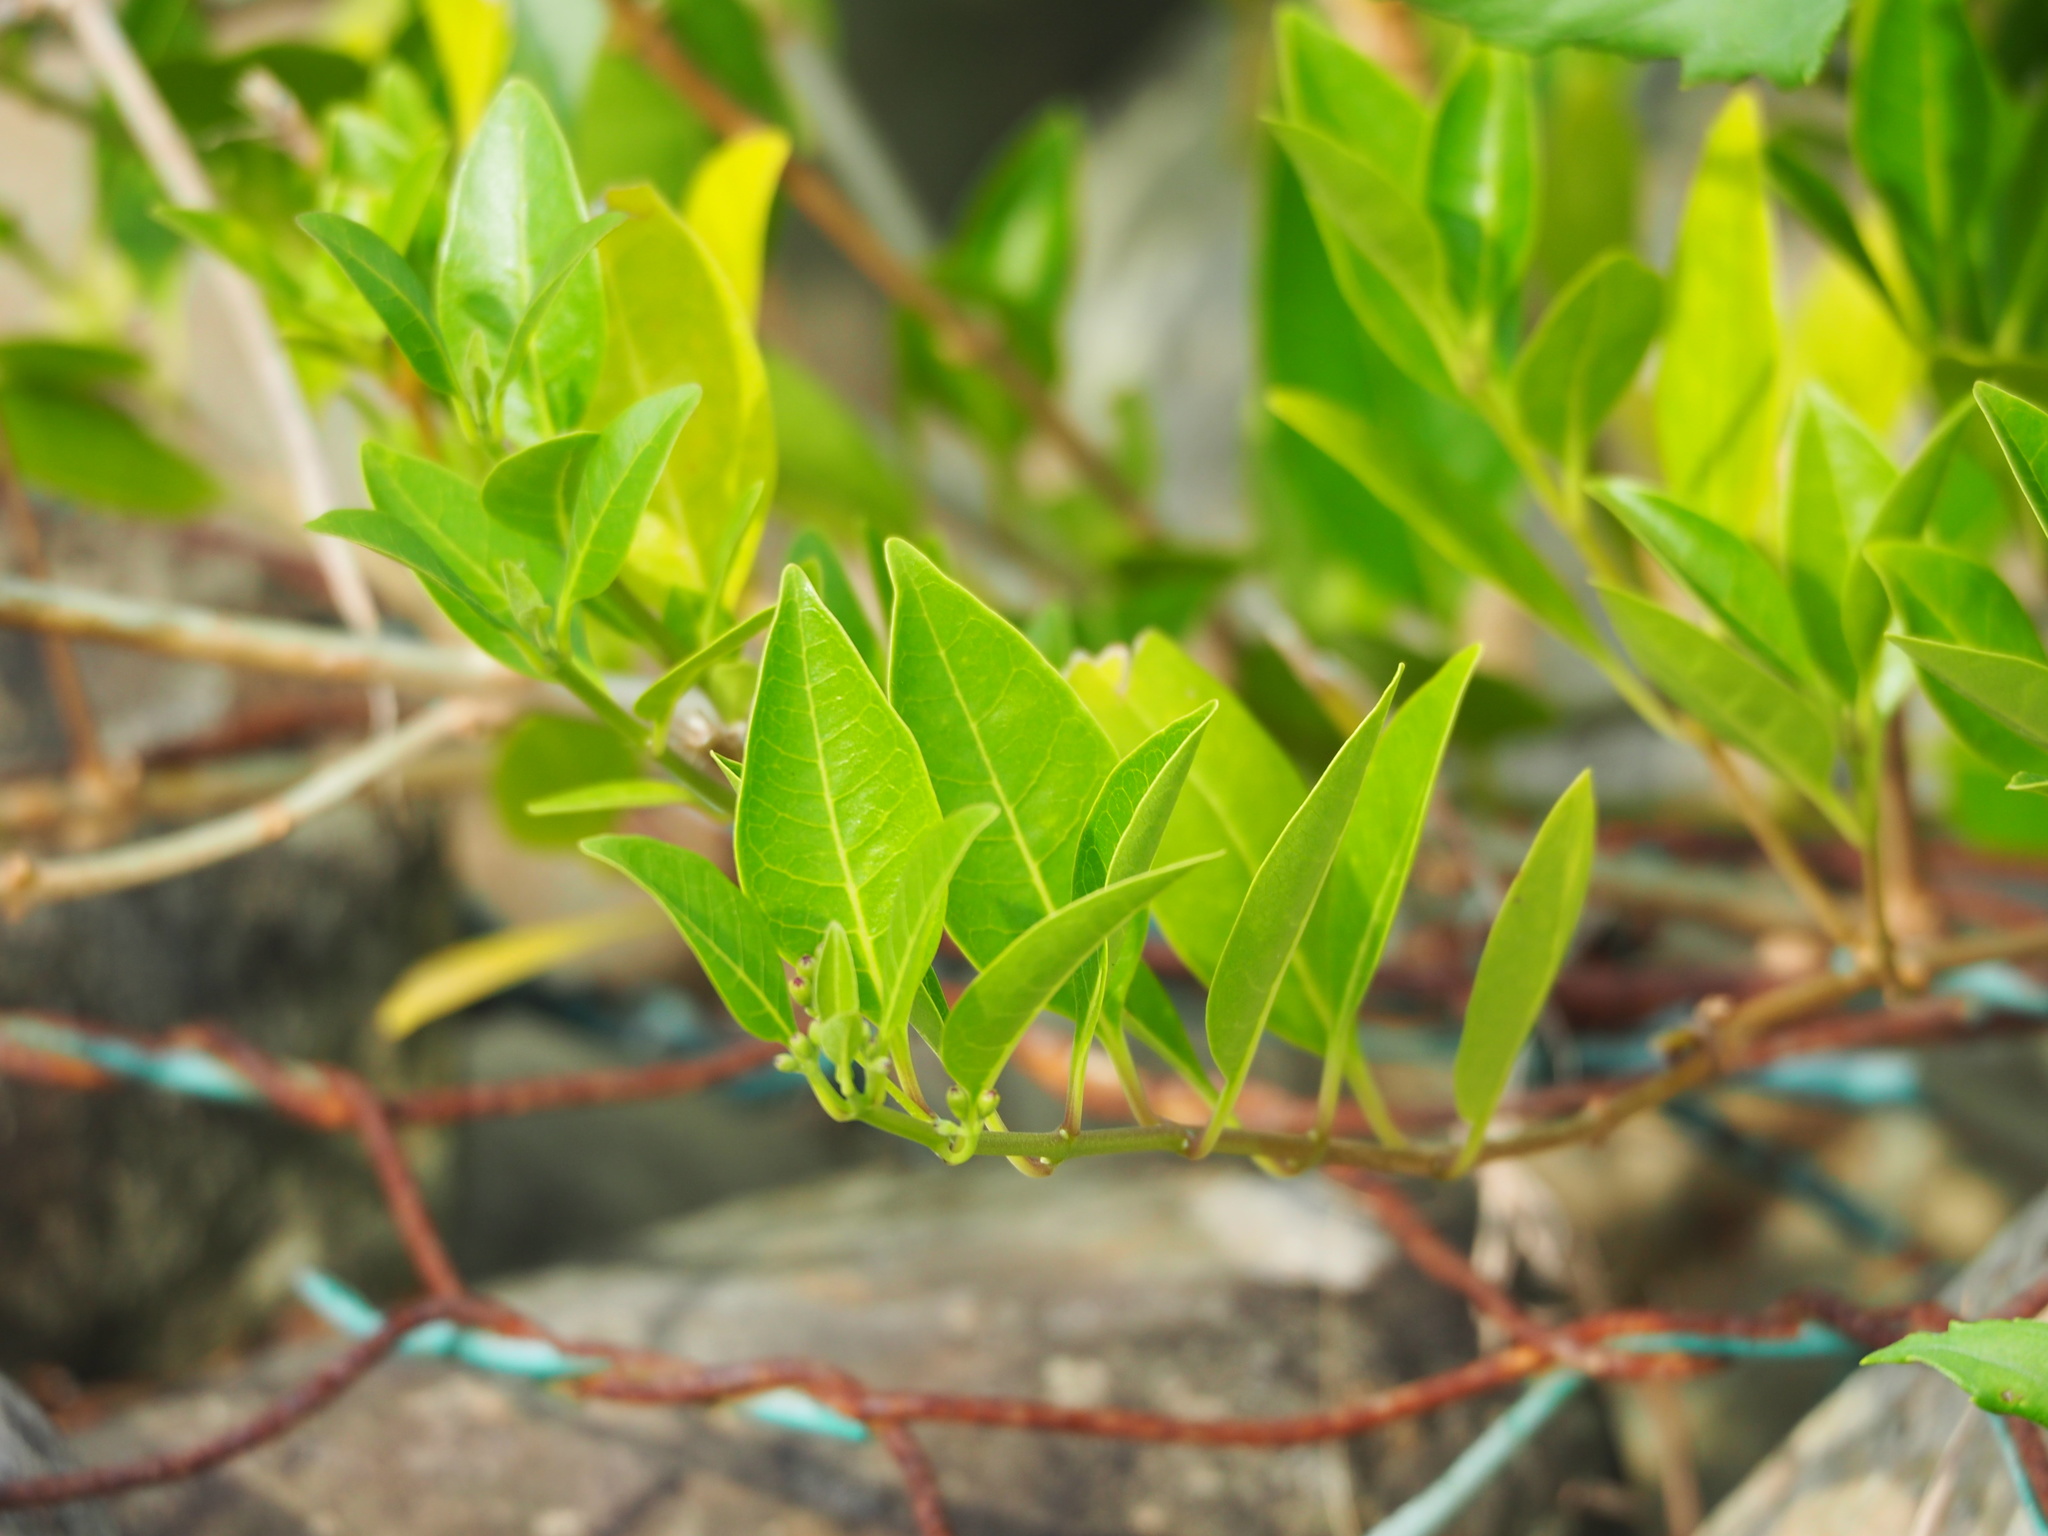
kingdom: Plantae
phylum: Tracheophyta
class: Magnoliopsida
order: Lamiales
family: Lamiaceae
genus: Volkameria
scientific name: Volkameria inermis
